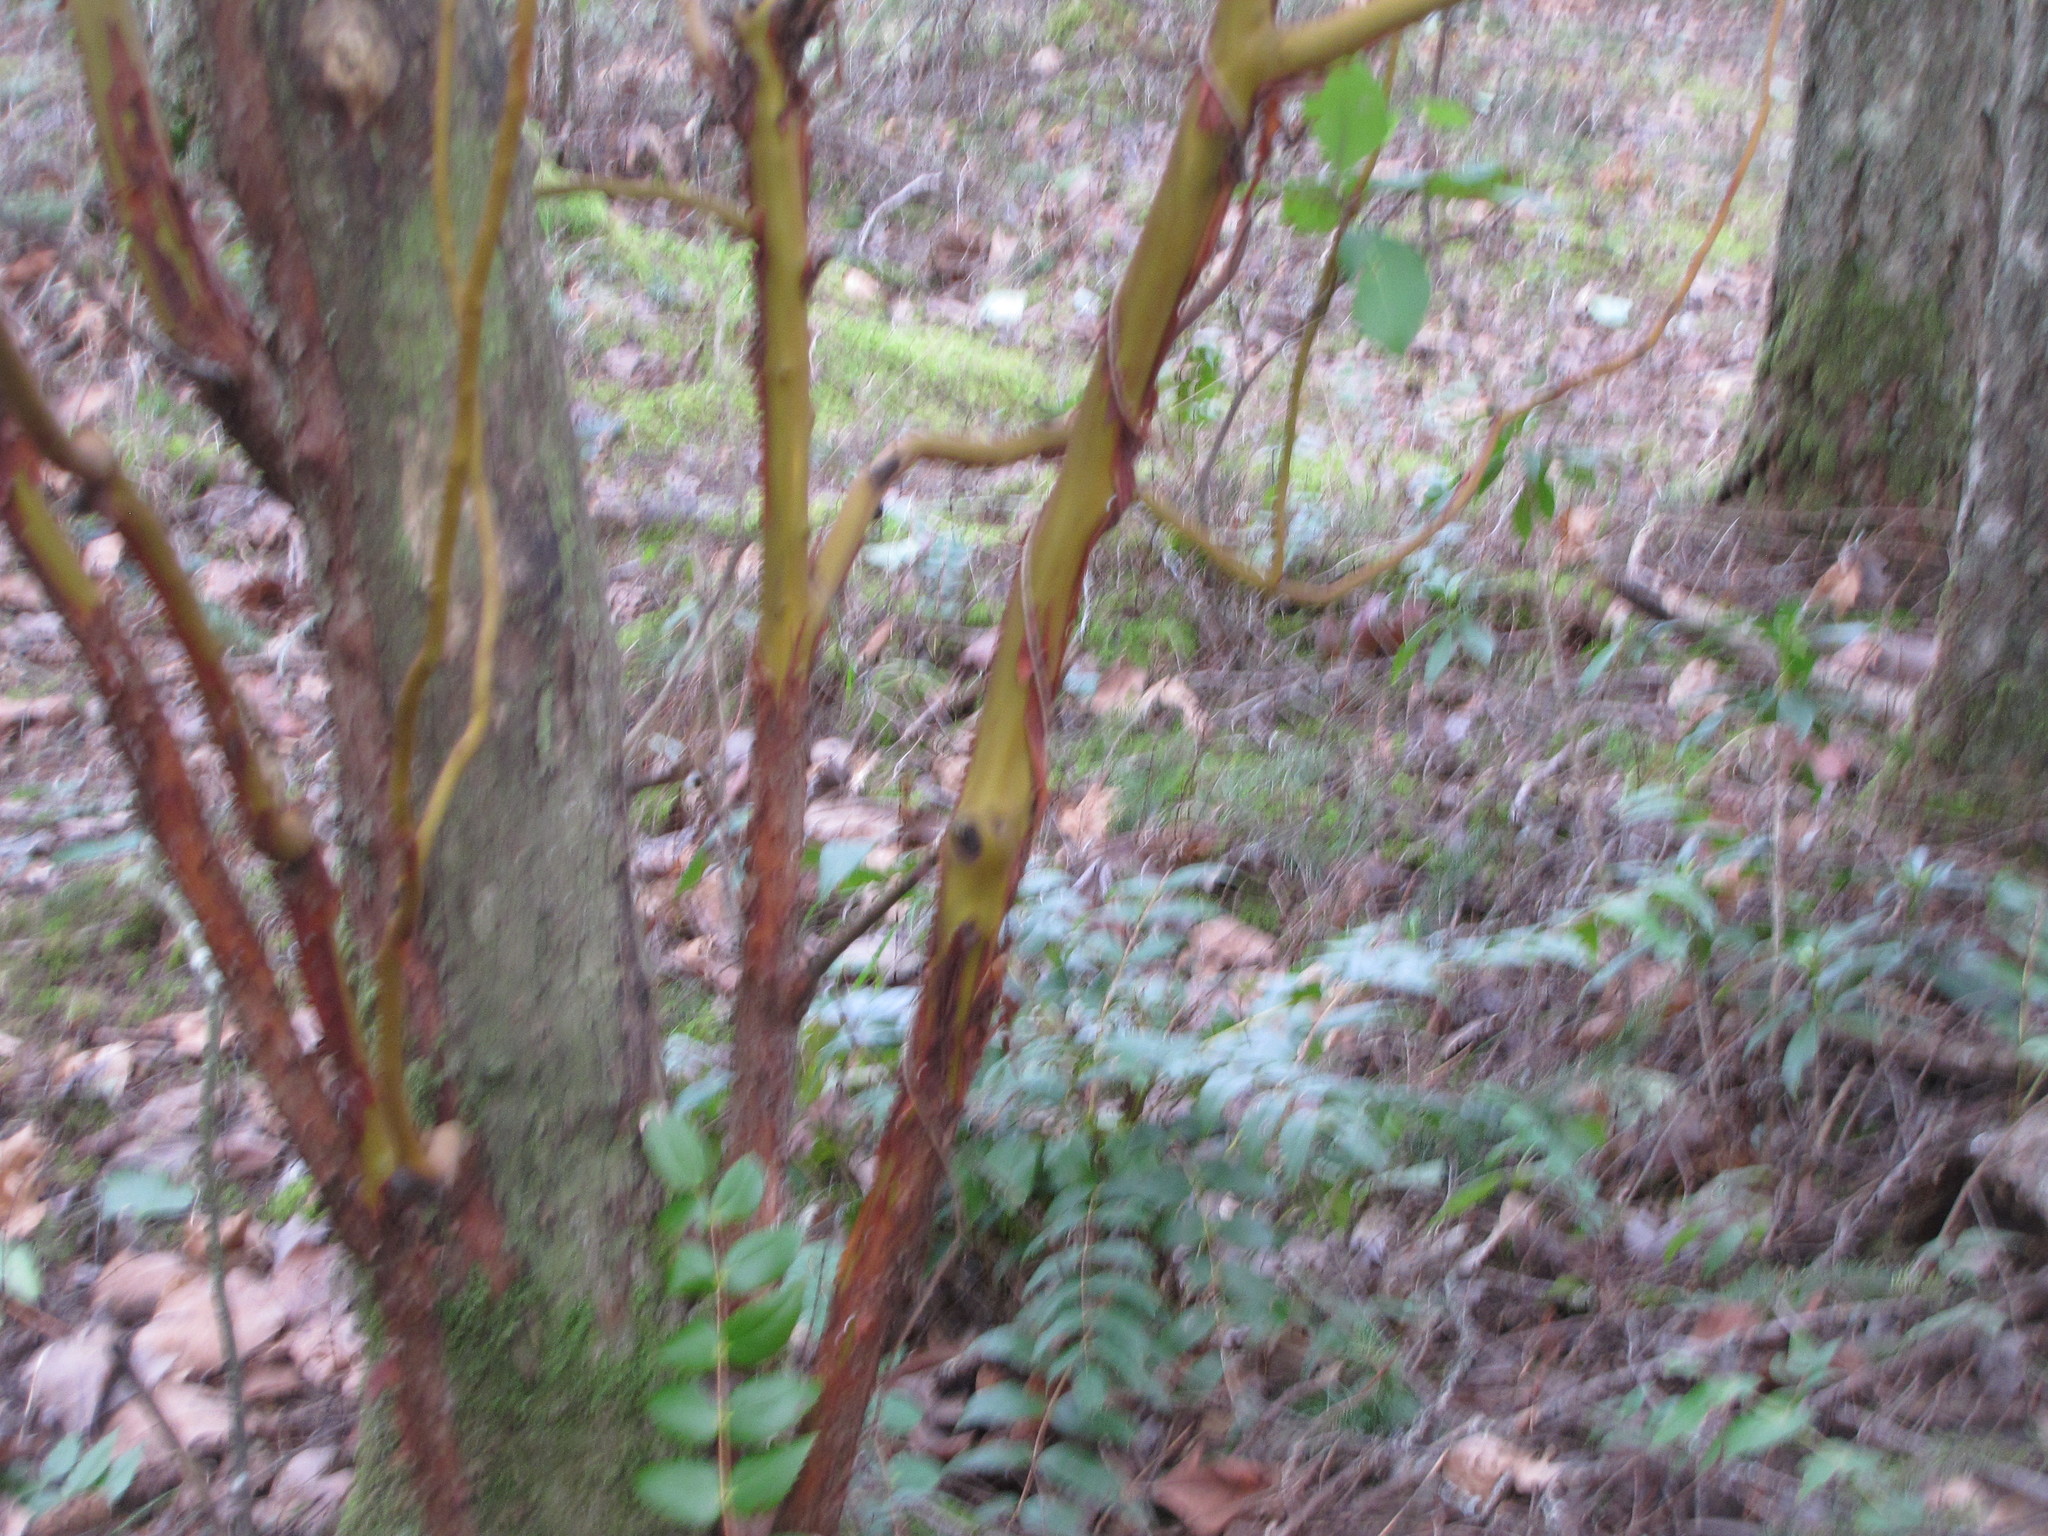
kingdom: Plantae
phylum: Tracheophyta
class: Magnoliopsida
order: Ericales
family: Ericaceae
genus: Arbutus
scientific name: Arbutus menziesii
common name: Pacific madrone
